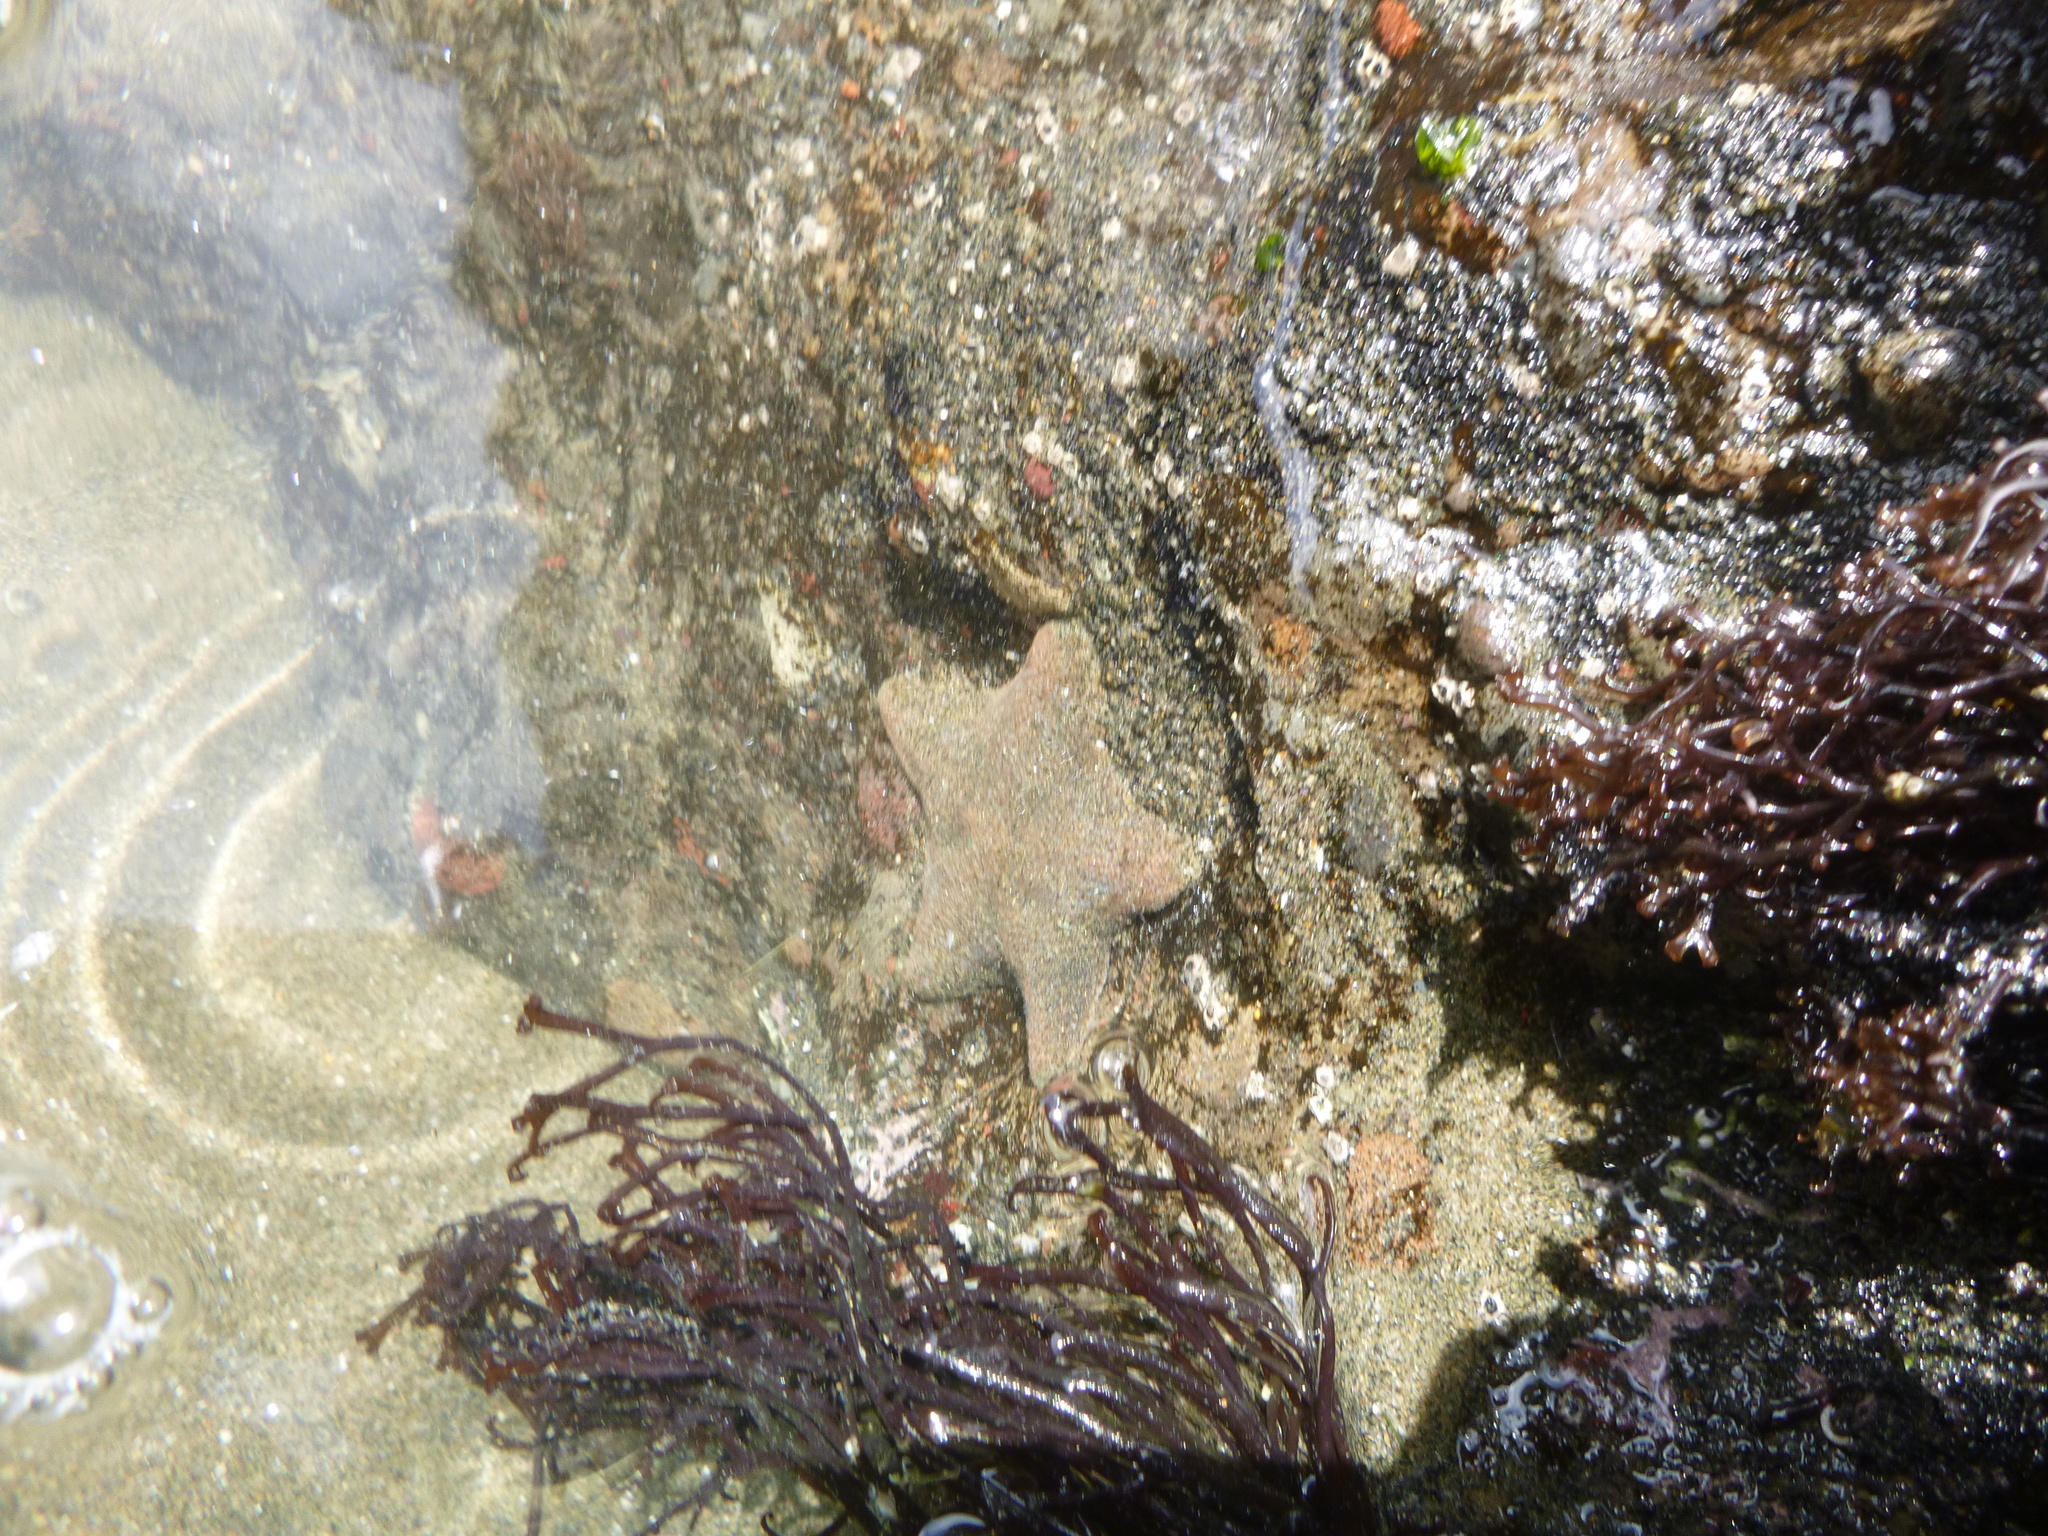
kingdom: Animalia
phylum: Echinodermata
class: Asteroidea
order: Valvatida
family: Asterinidae
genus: Patiriella
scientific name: Patiriella regularis
